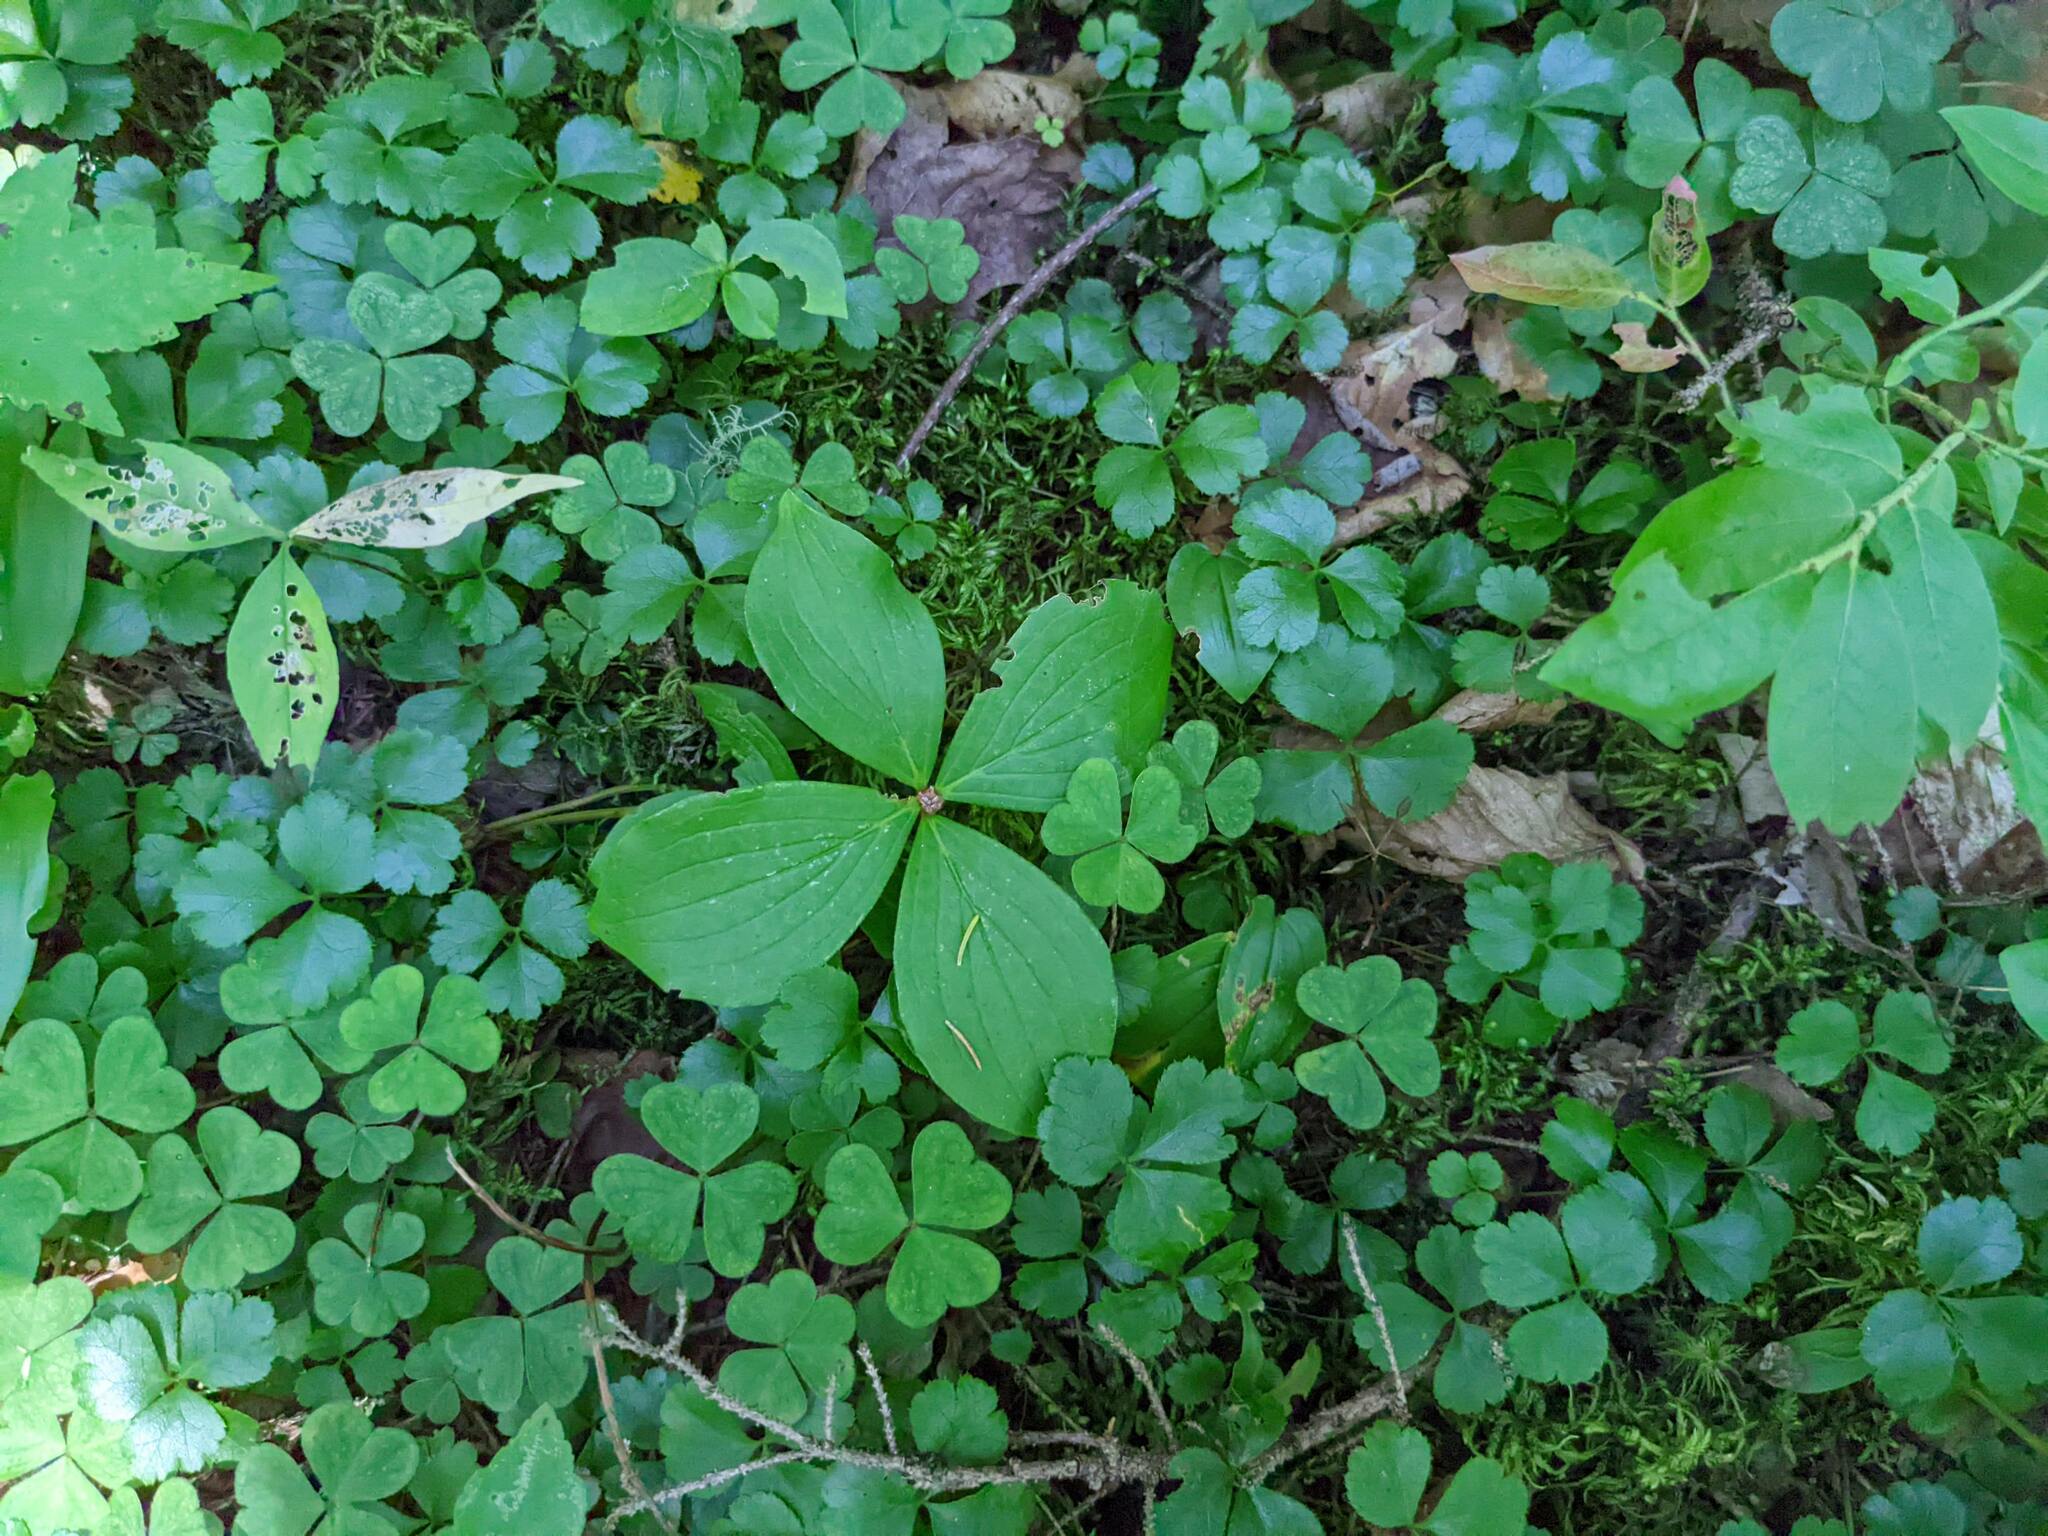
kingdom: Plantae
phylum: Tracheophyta
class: Magnoliopsida
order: Cornales
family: Cornaceae
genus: Cornus
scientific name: Cornus canadensis
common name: Creeping dogwood
